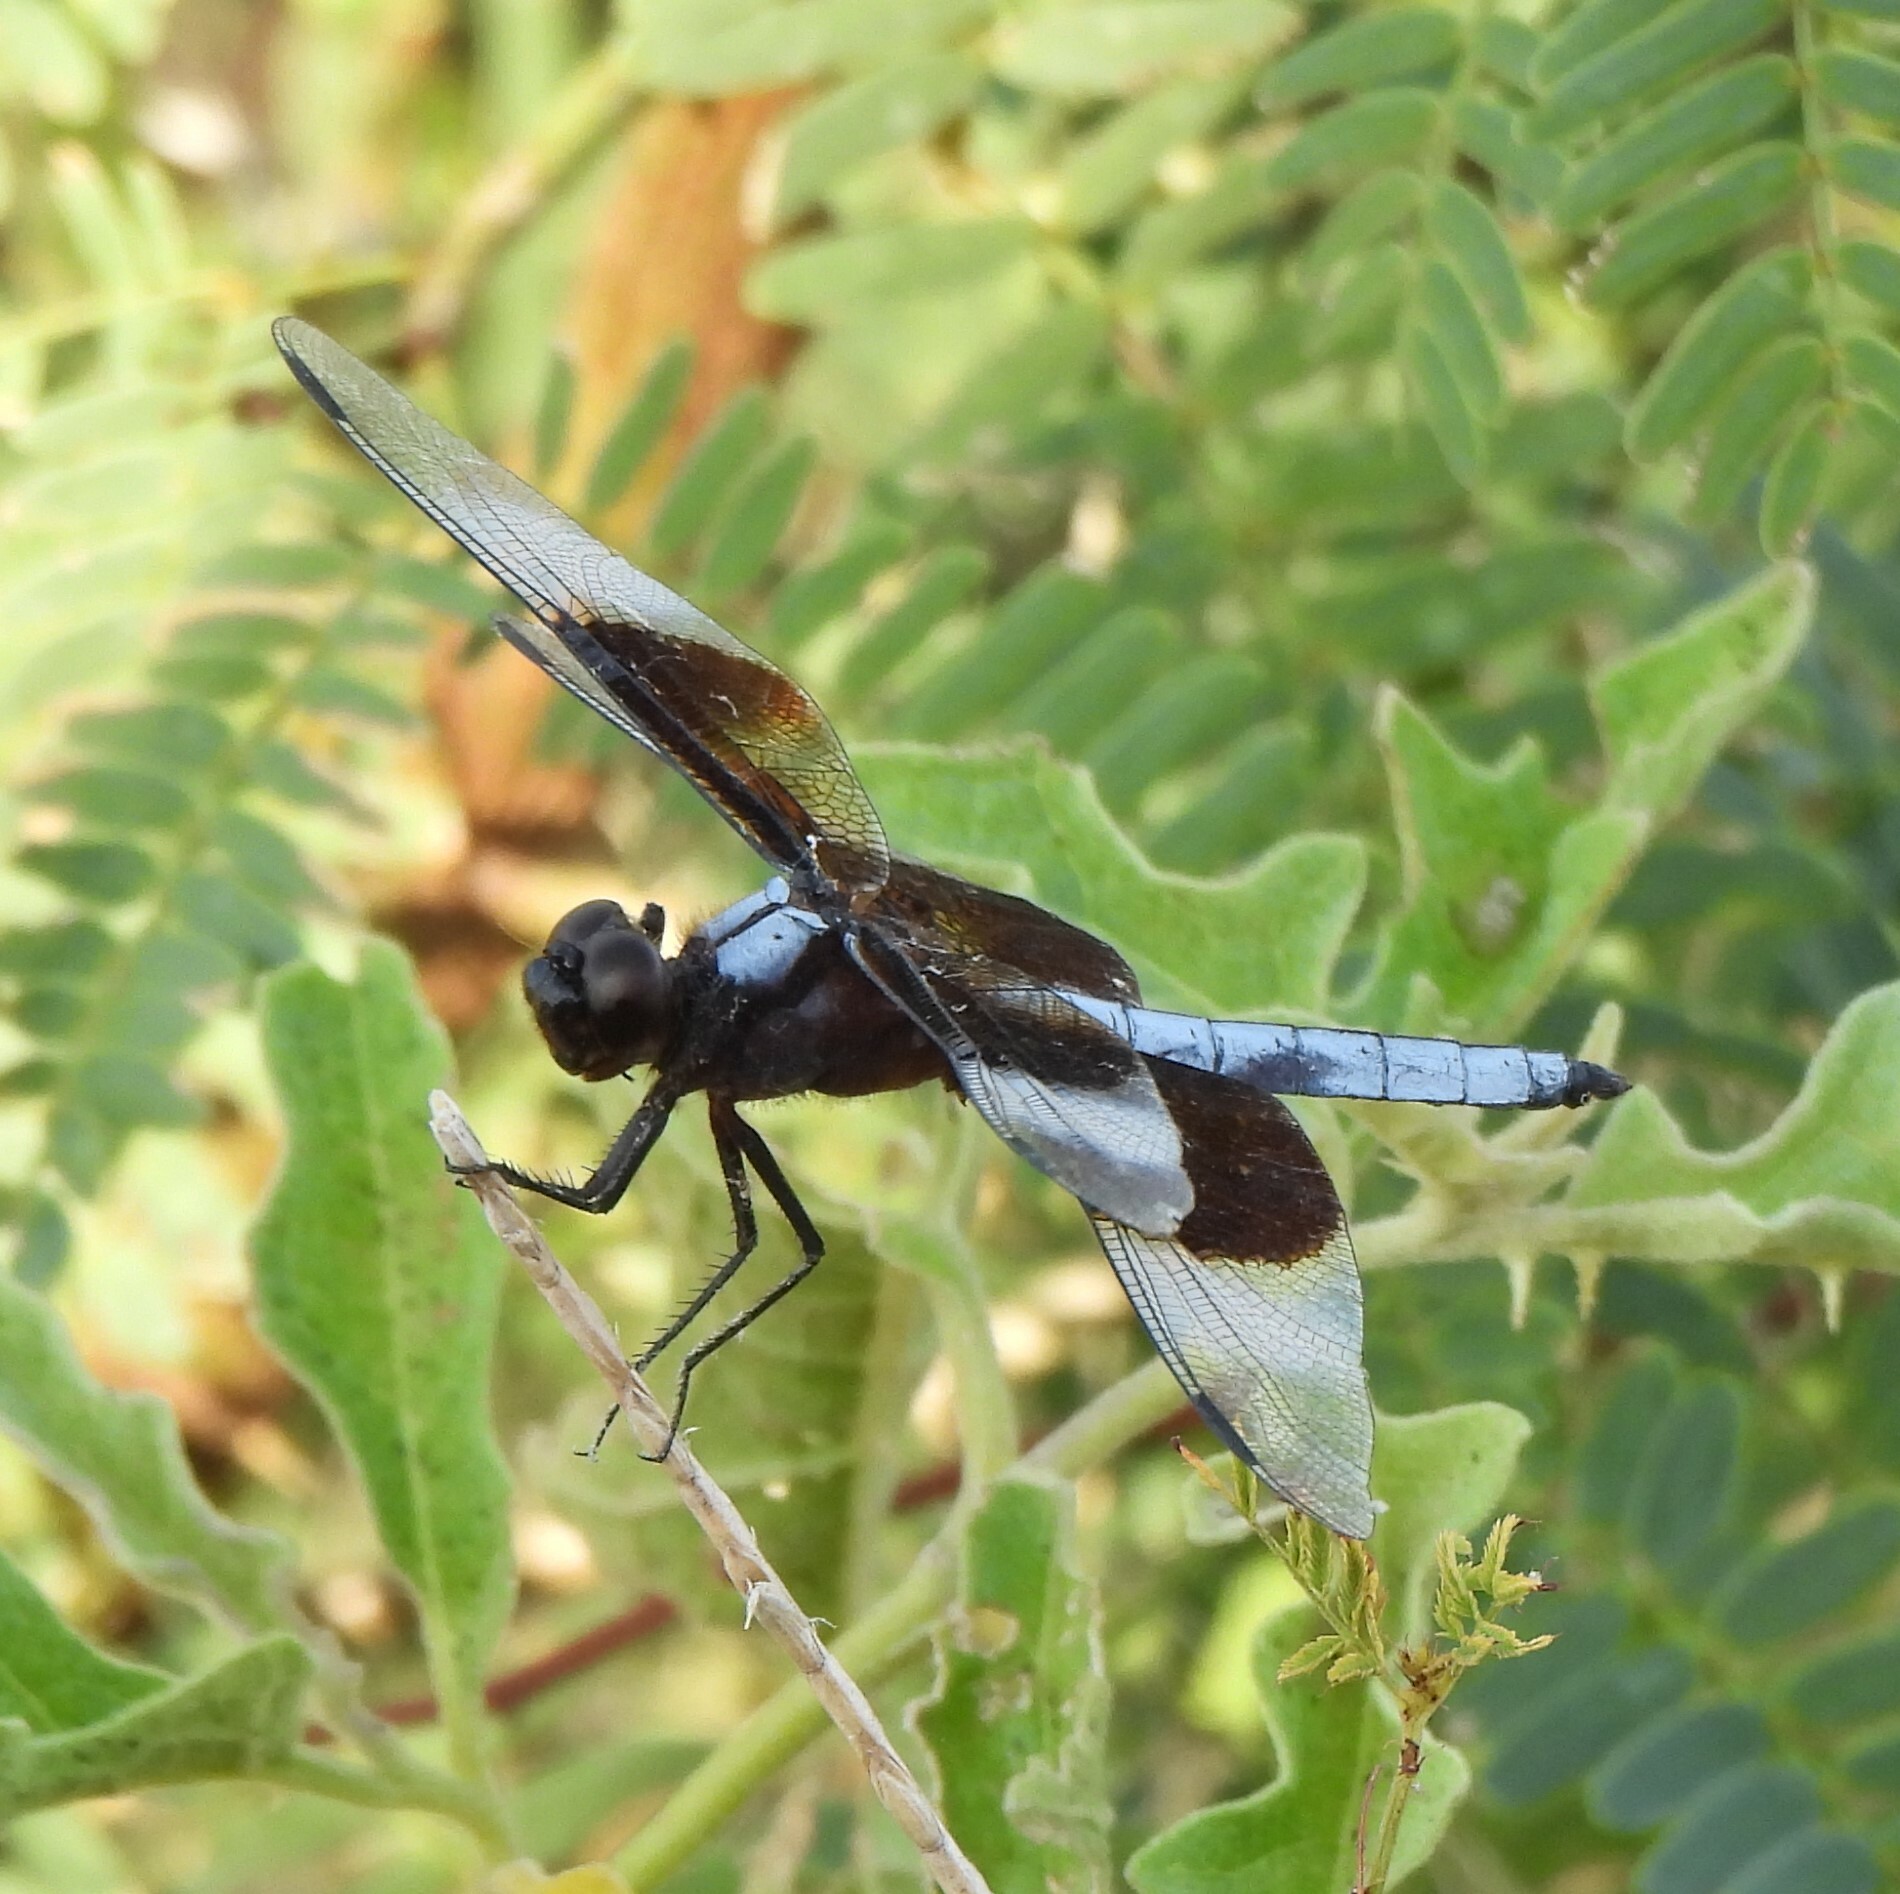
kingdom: Animalia
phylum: Arthropoda
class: Insecta
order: Odonata
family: Libellulidae
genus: Libellula
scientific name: Libellula luctuosa
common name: Widow skimmer
